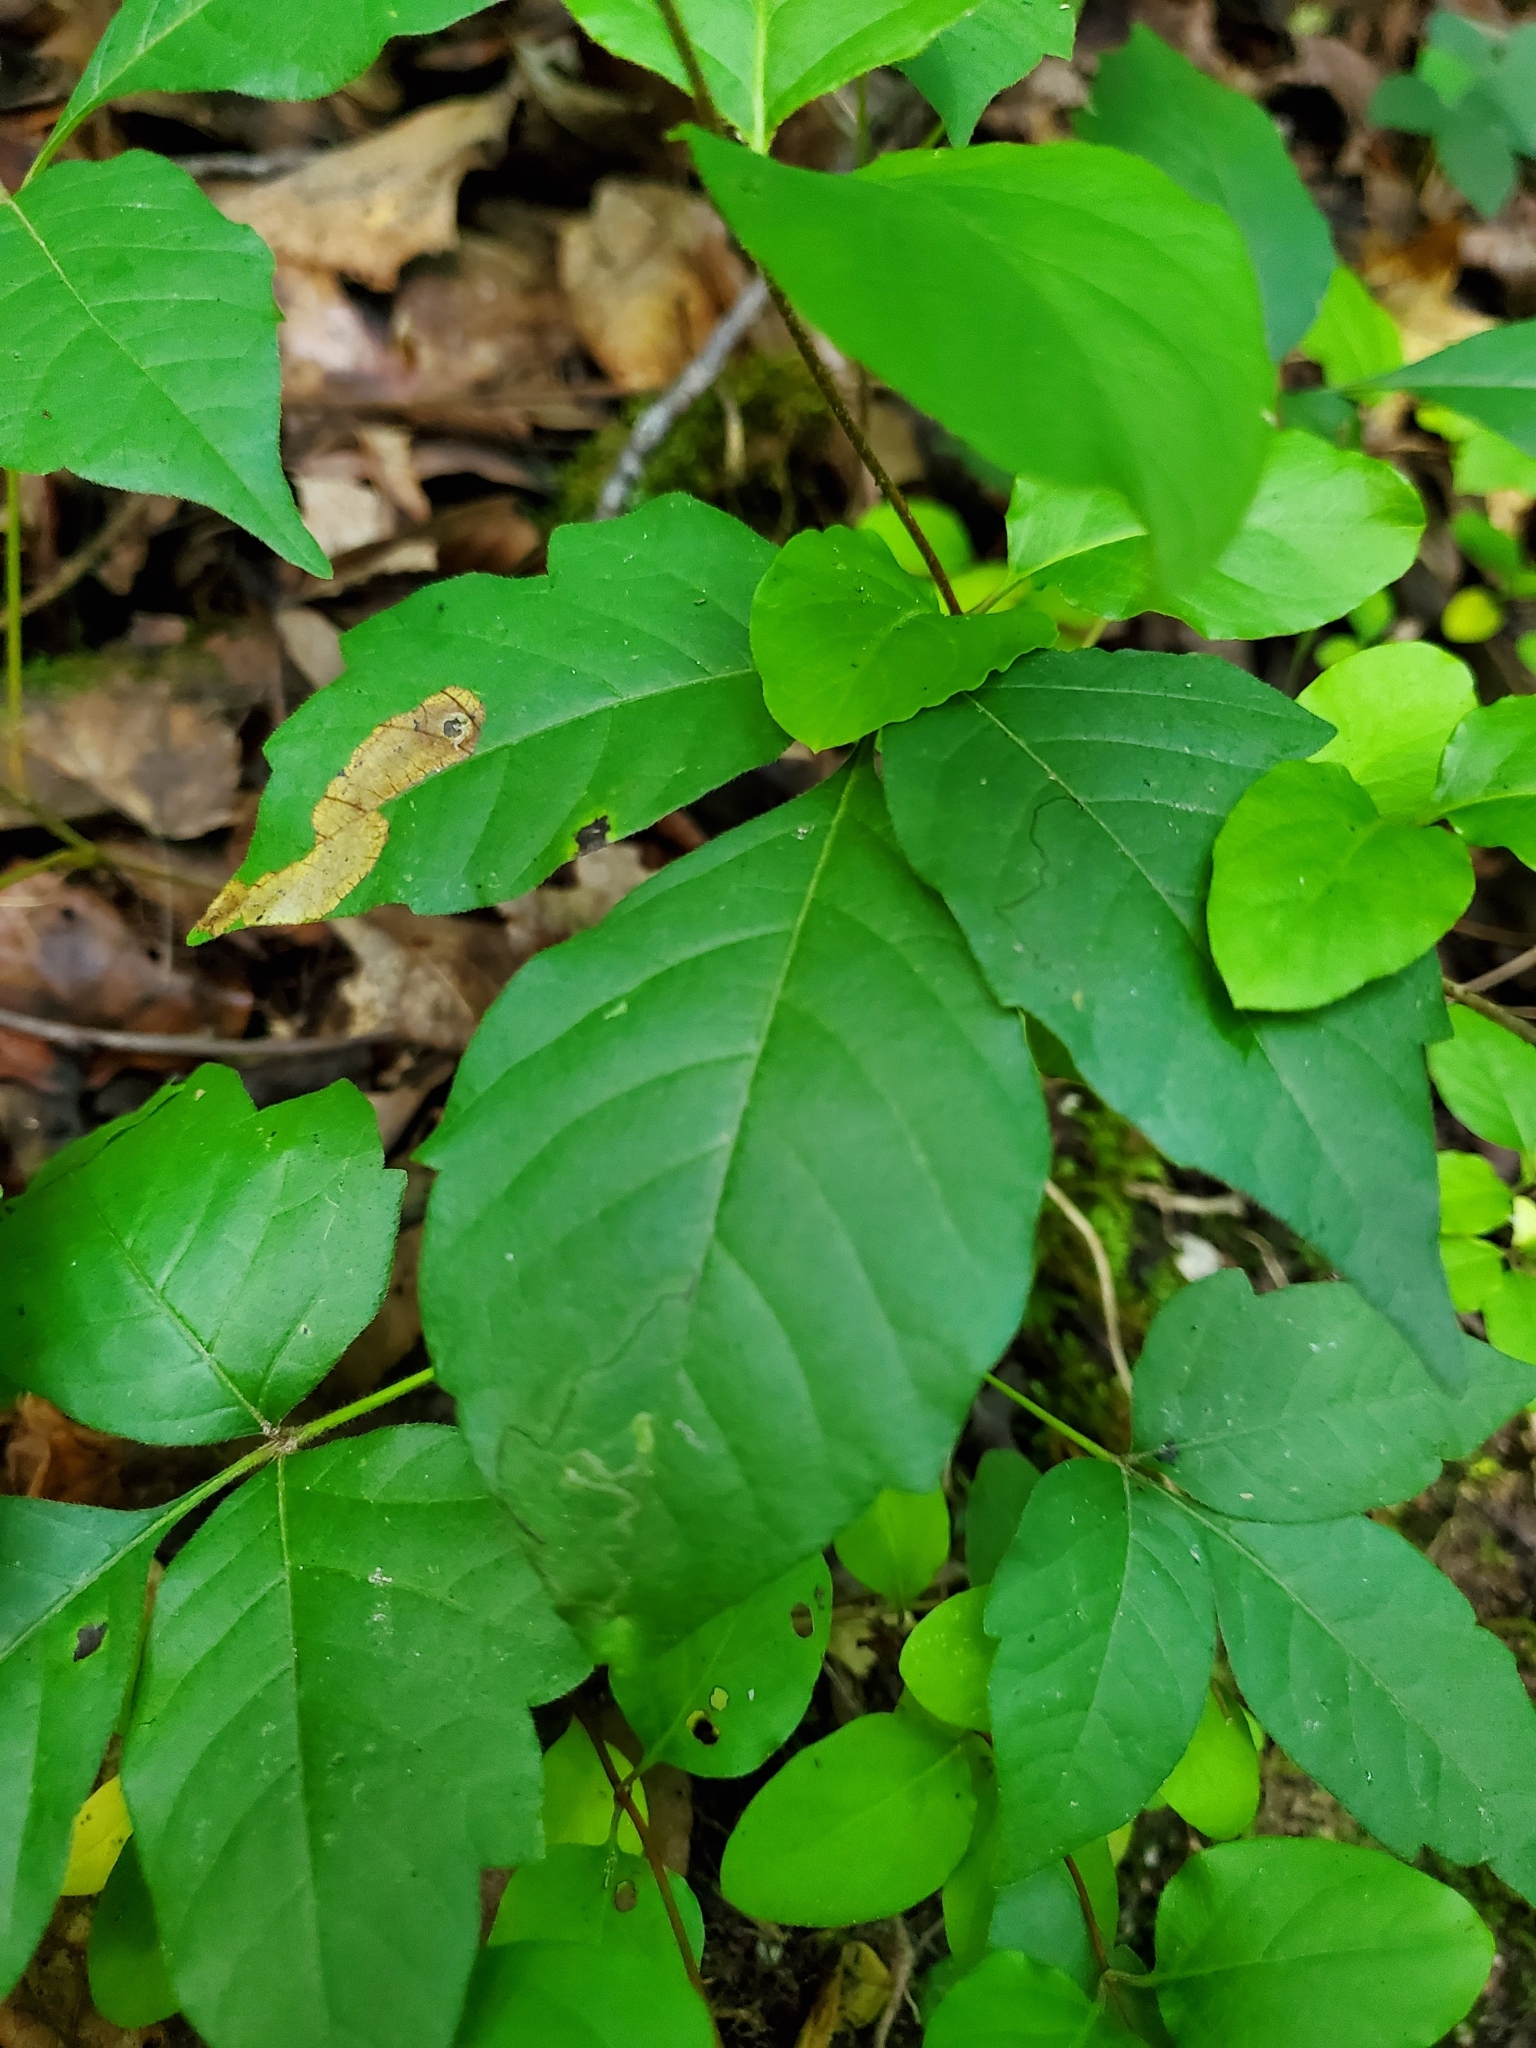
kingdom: Animalia
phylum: Arthropoda
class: Insecta
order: Lepidoptera
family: Gracillariidae
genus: Cameraria
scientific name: Cameraria guttifinitella
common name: Poison ivy leaf-miner moth
